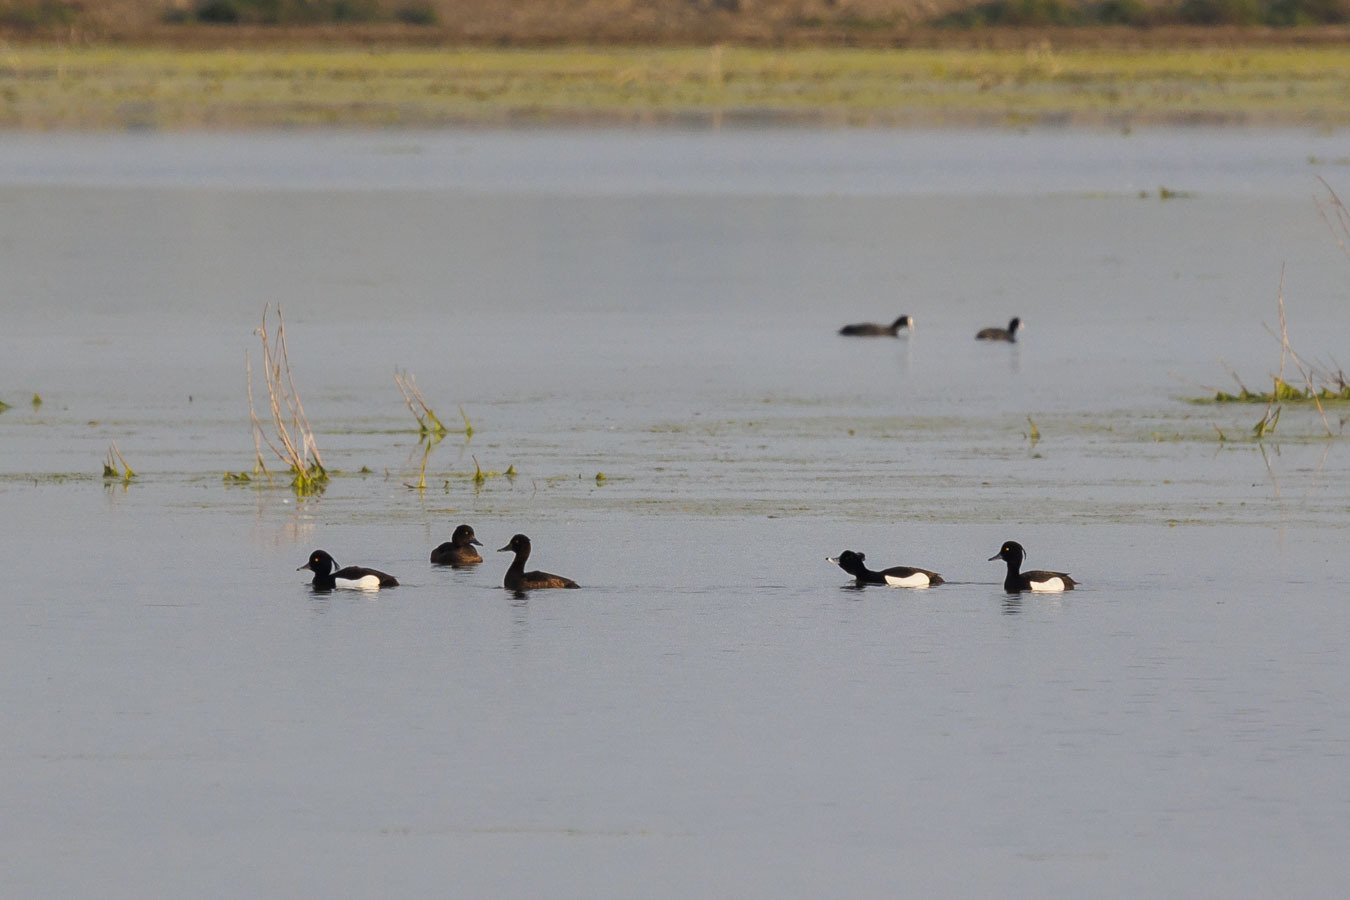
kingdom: Animalia
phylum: Chordata
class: Aves
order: Anseriformes
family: Anatidae
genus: Aythya
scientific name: Aythya fuligula
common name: Tufted duck
